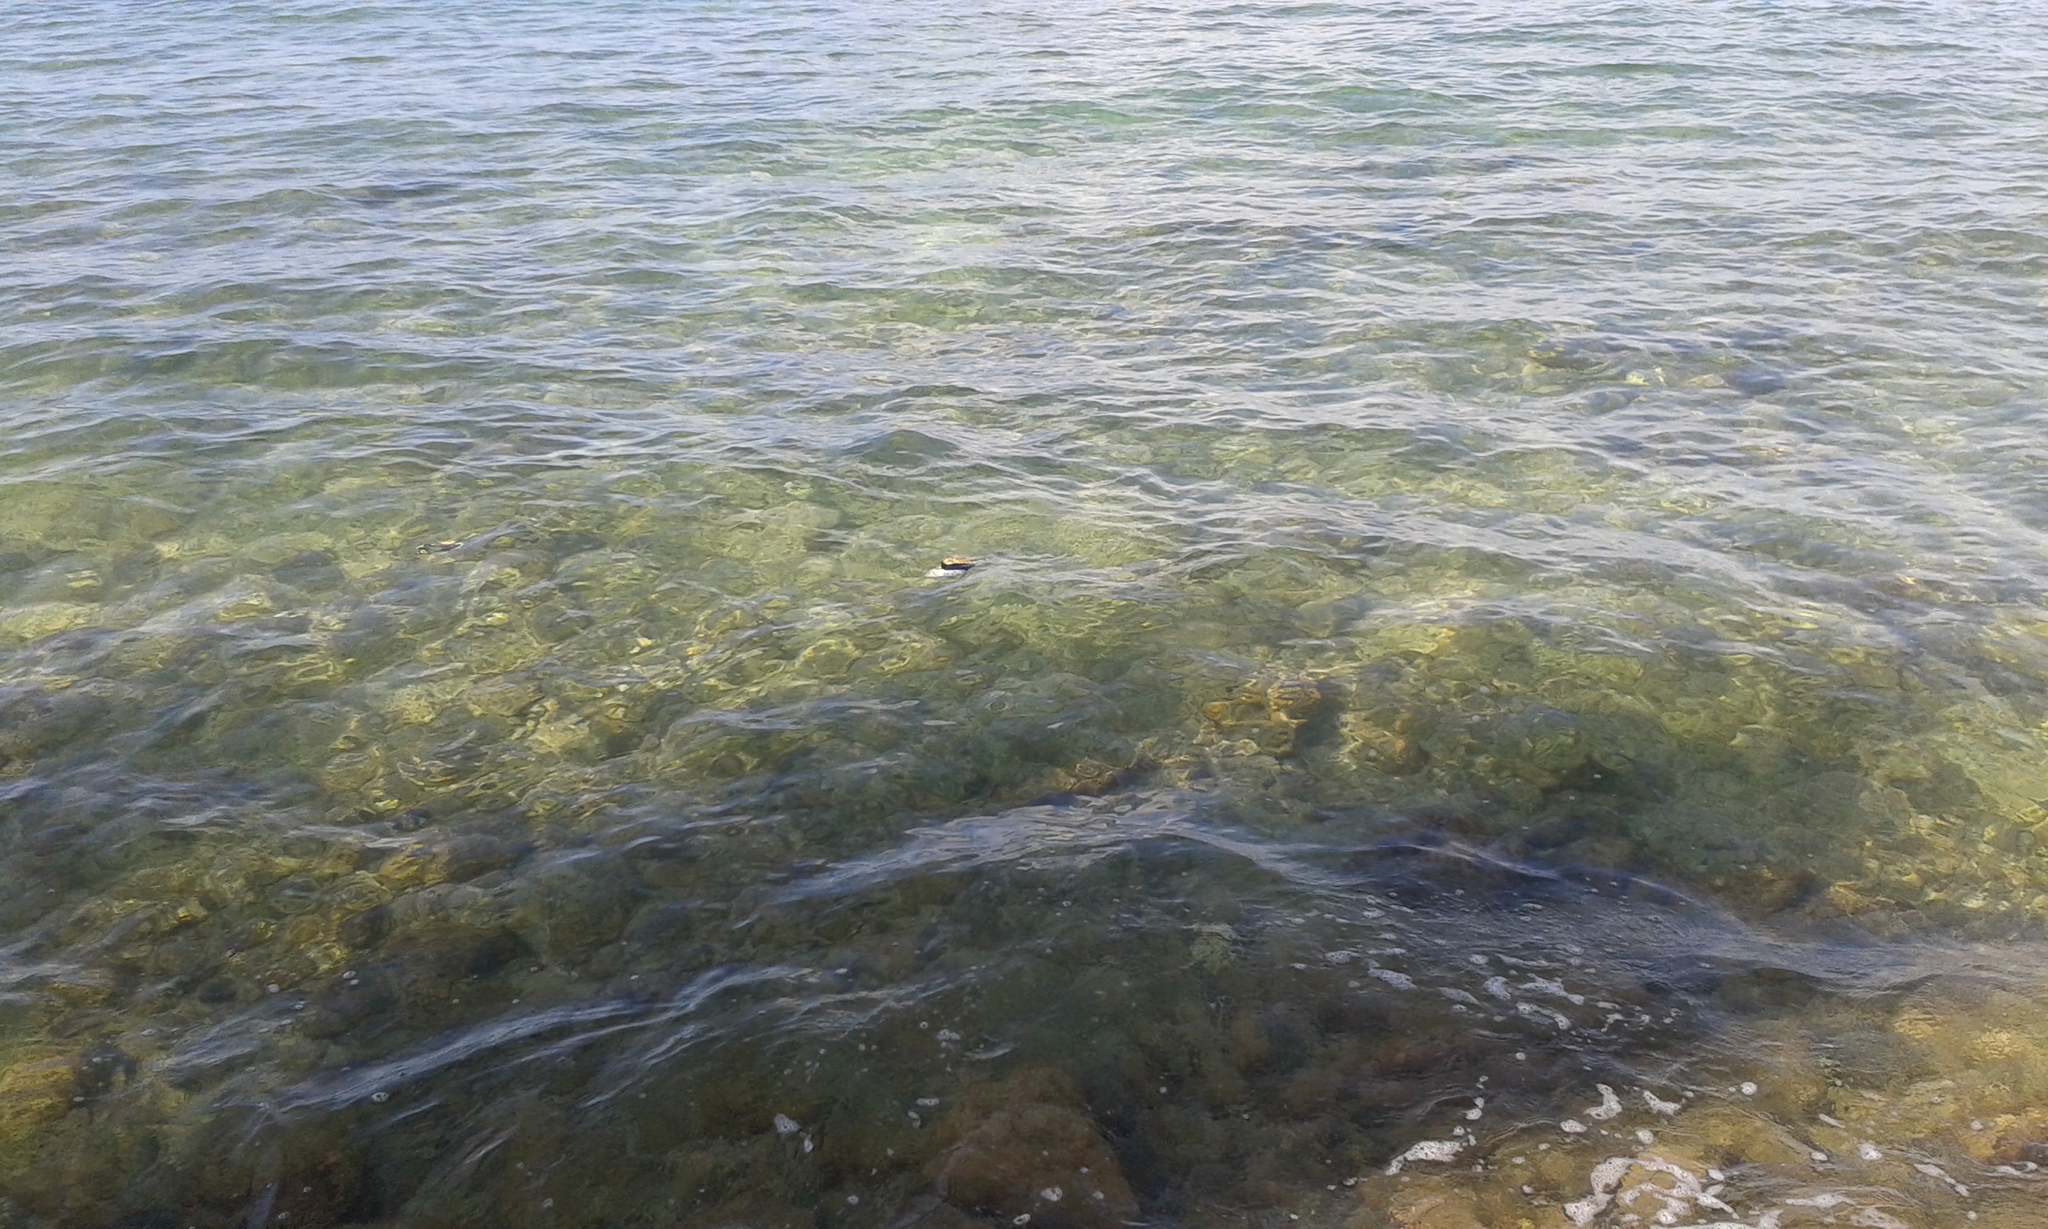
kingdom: Animalia
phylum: Chordata
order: Tetraodontiformes
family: Balistidae
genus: Rhinecanthus
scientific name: Rhinecanthus rectangulus
